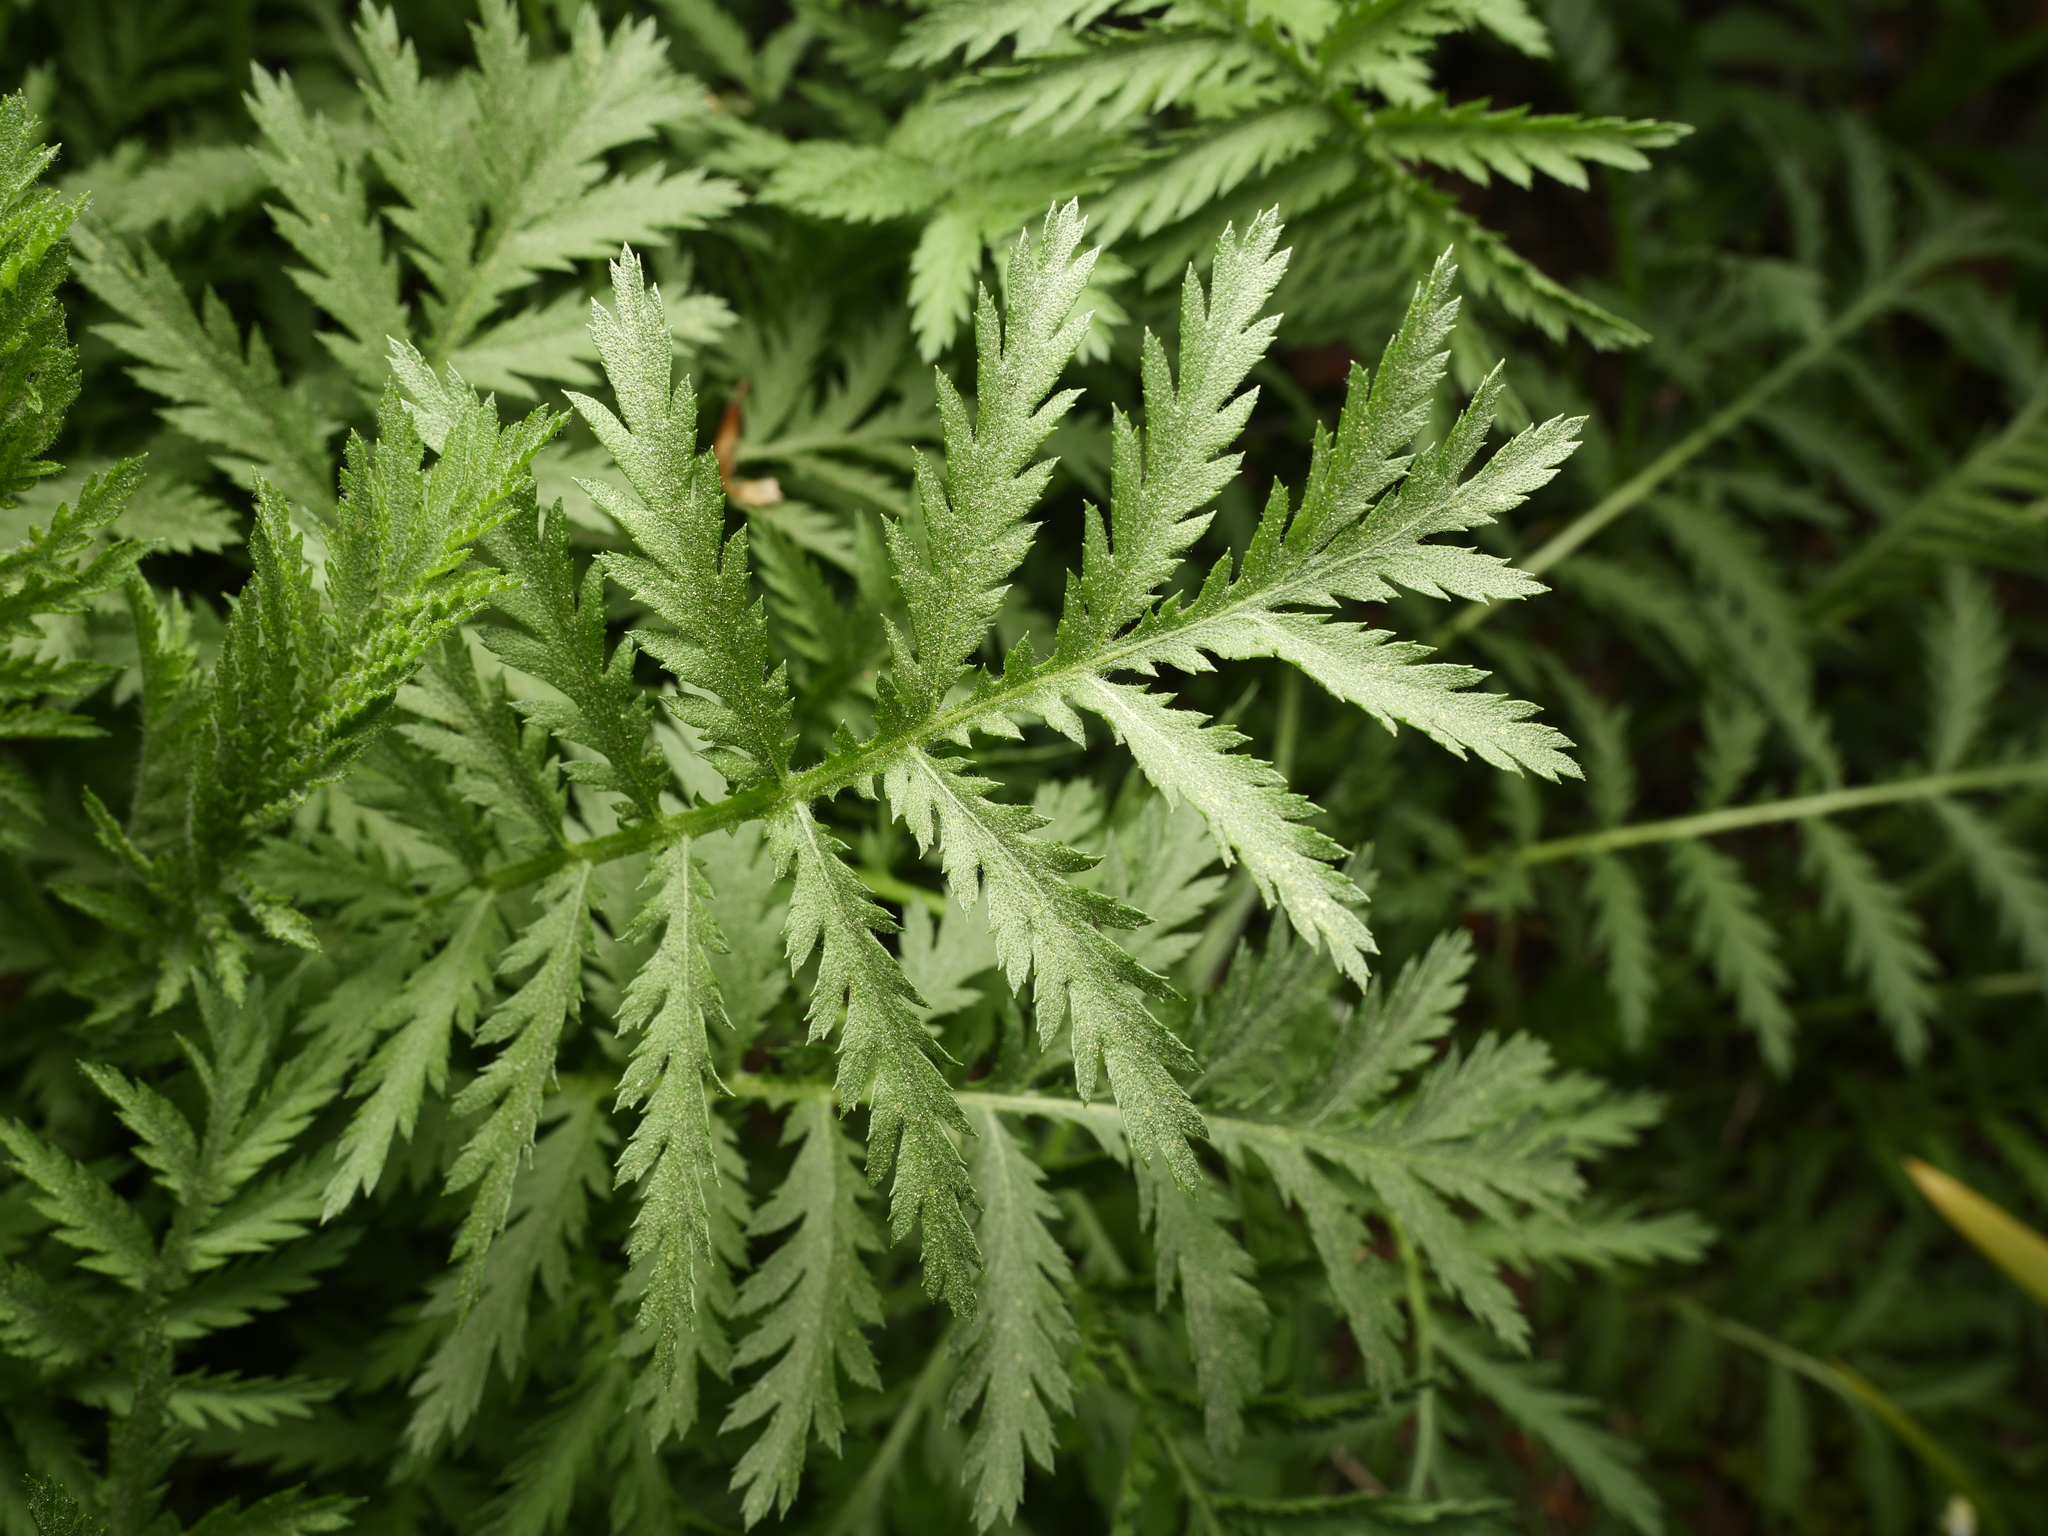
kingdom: Plantae
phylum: Tracheophyta
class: Magnoliopsida
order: Asterales
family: Asteraceae
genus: Tanacetum
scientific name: Tanacetum vulgare
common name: Common tansy
